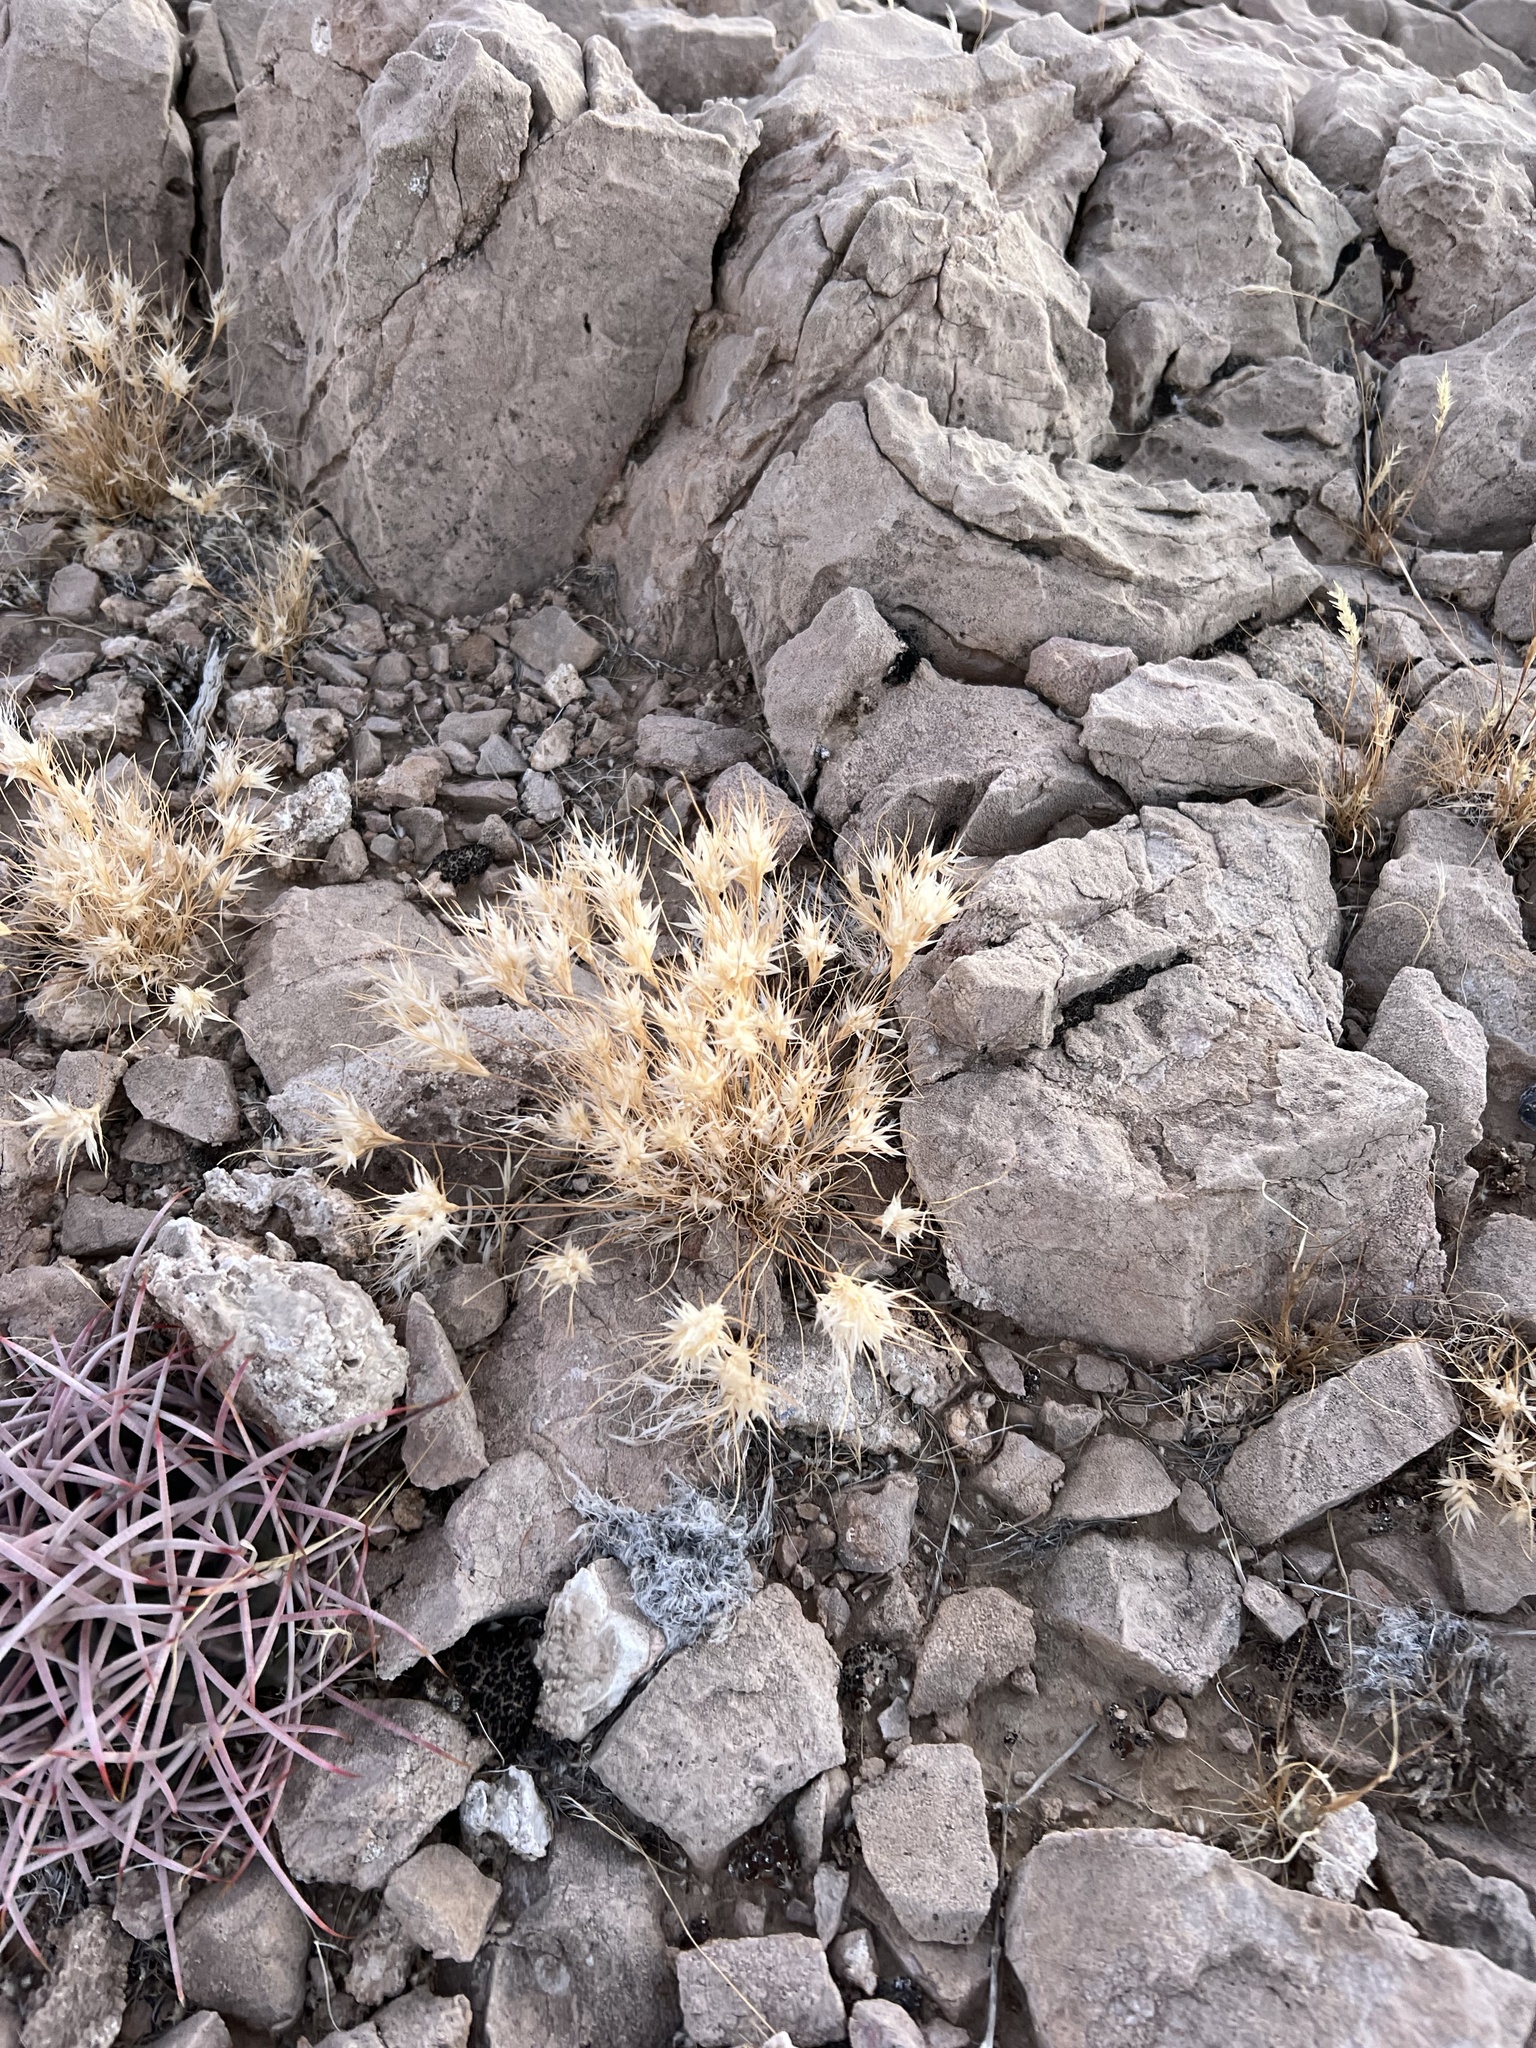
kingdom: Plantae
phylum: Tracheophyta
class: Liliopsida
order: Poales
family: Poaceae
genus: Dasyochloa
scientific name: Dasyochloa pulchella
